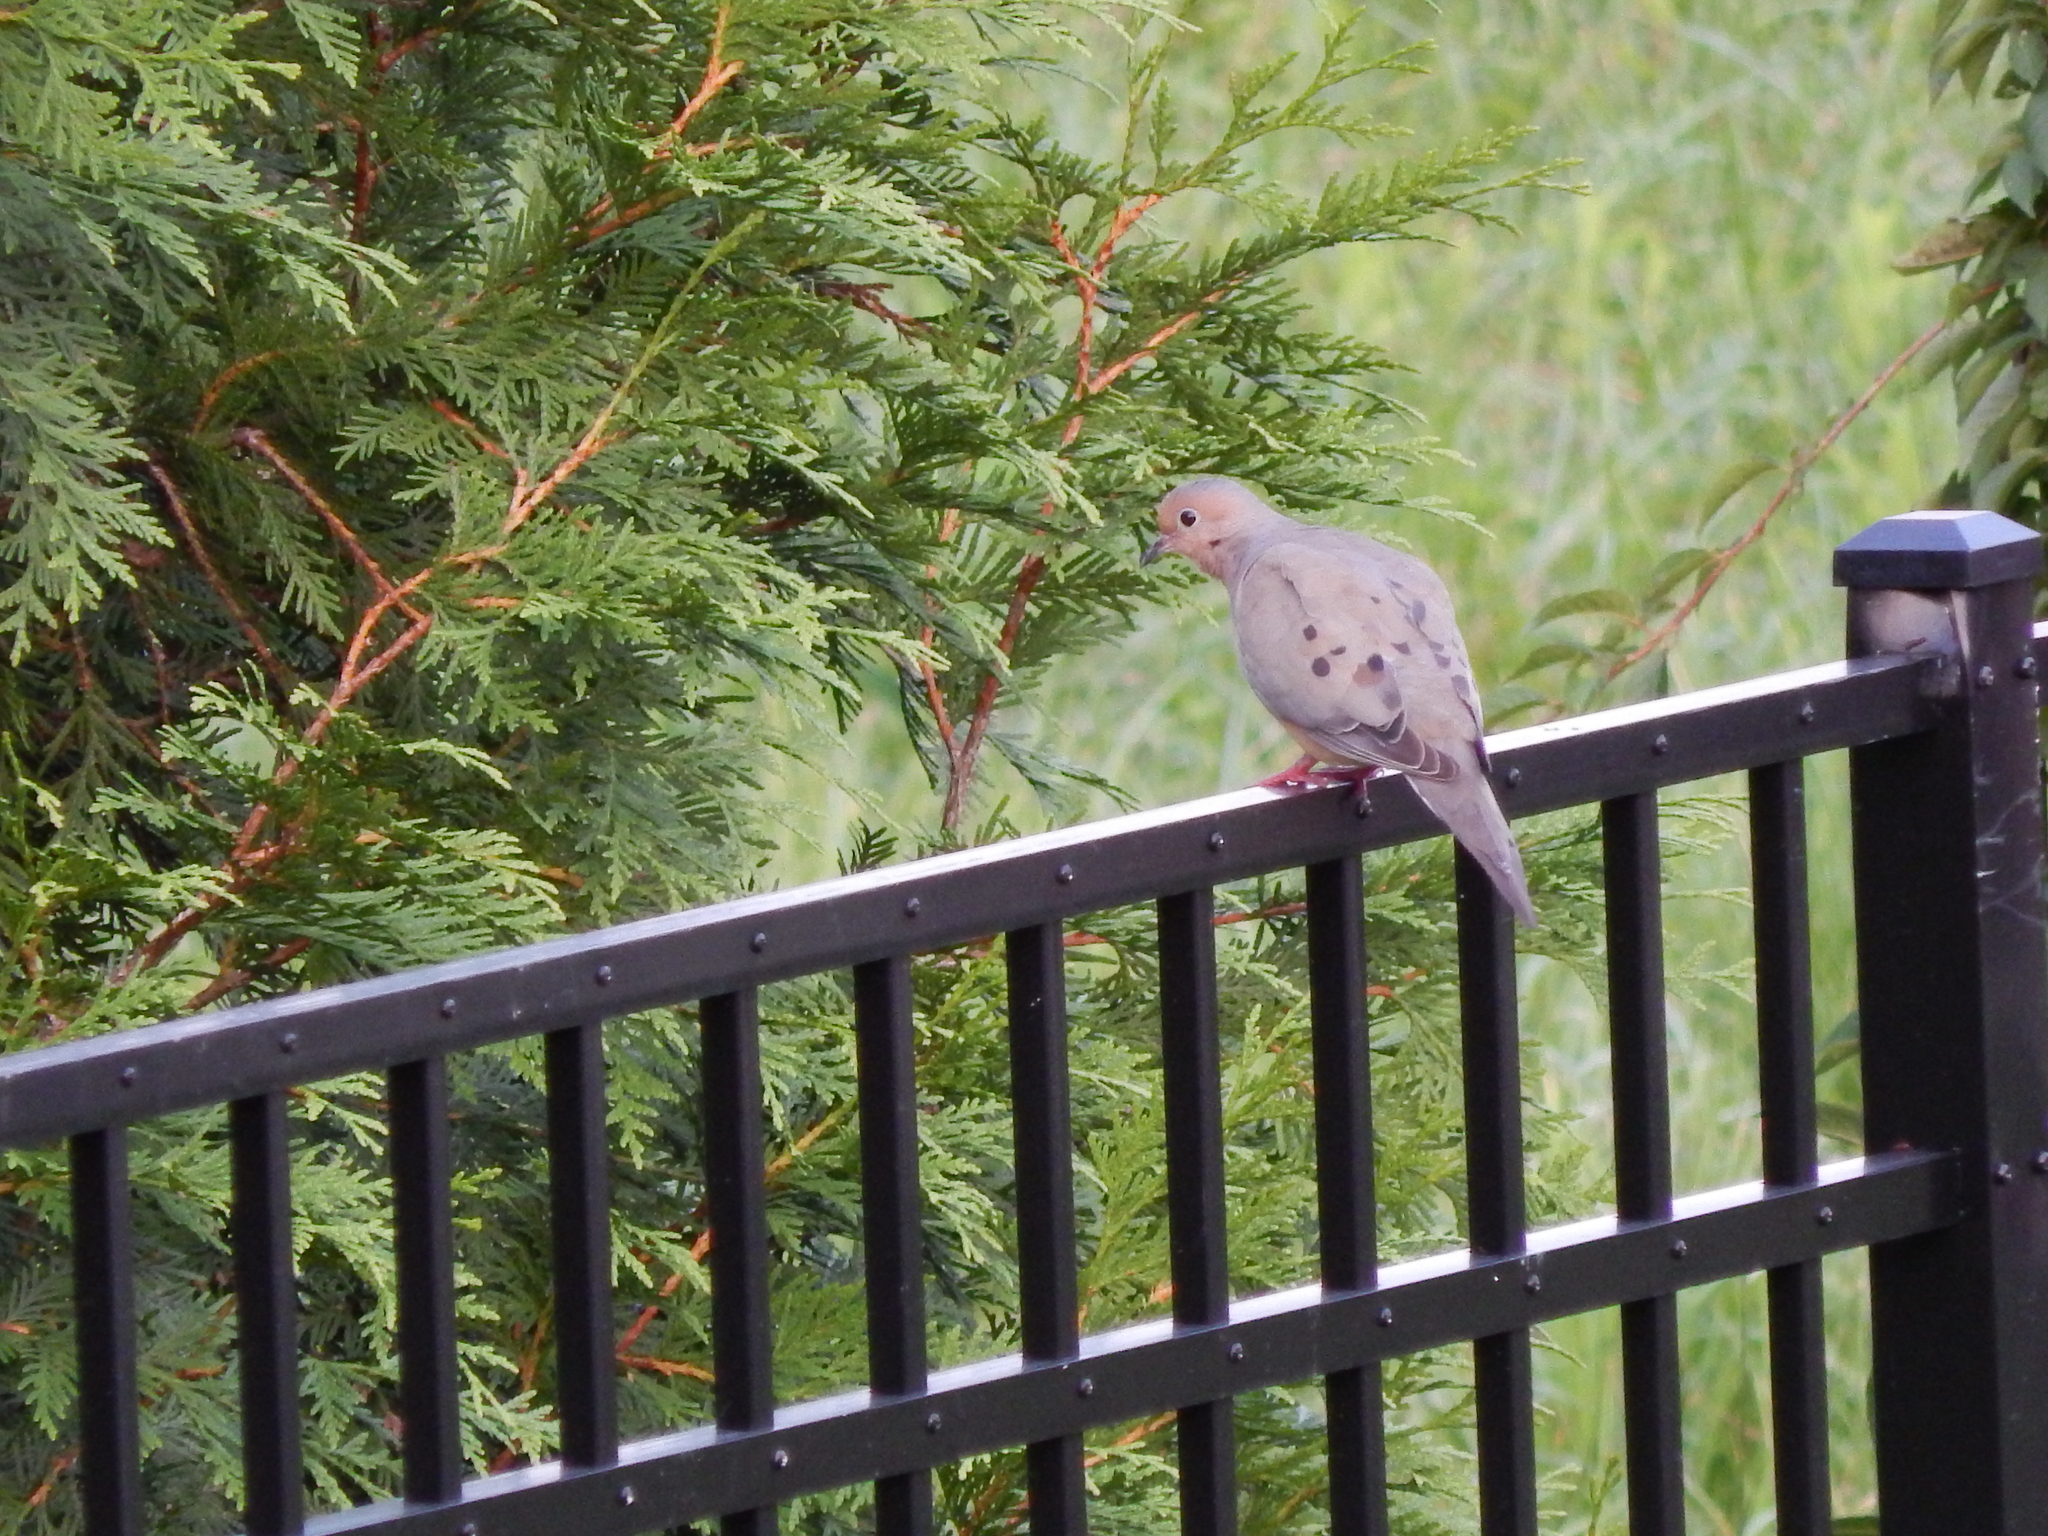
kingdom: Animalia
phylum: Chordata
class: Aves
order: Columbiformes
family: Columbidae
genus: Zenaida
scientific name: Zenaida macroura
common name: Mourning dove
